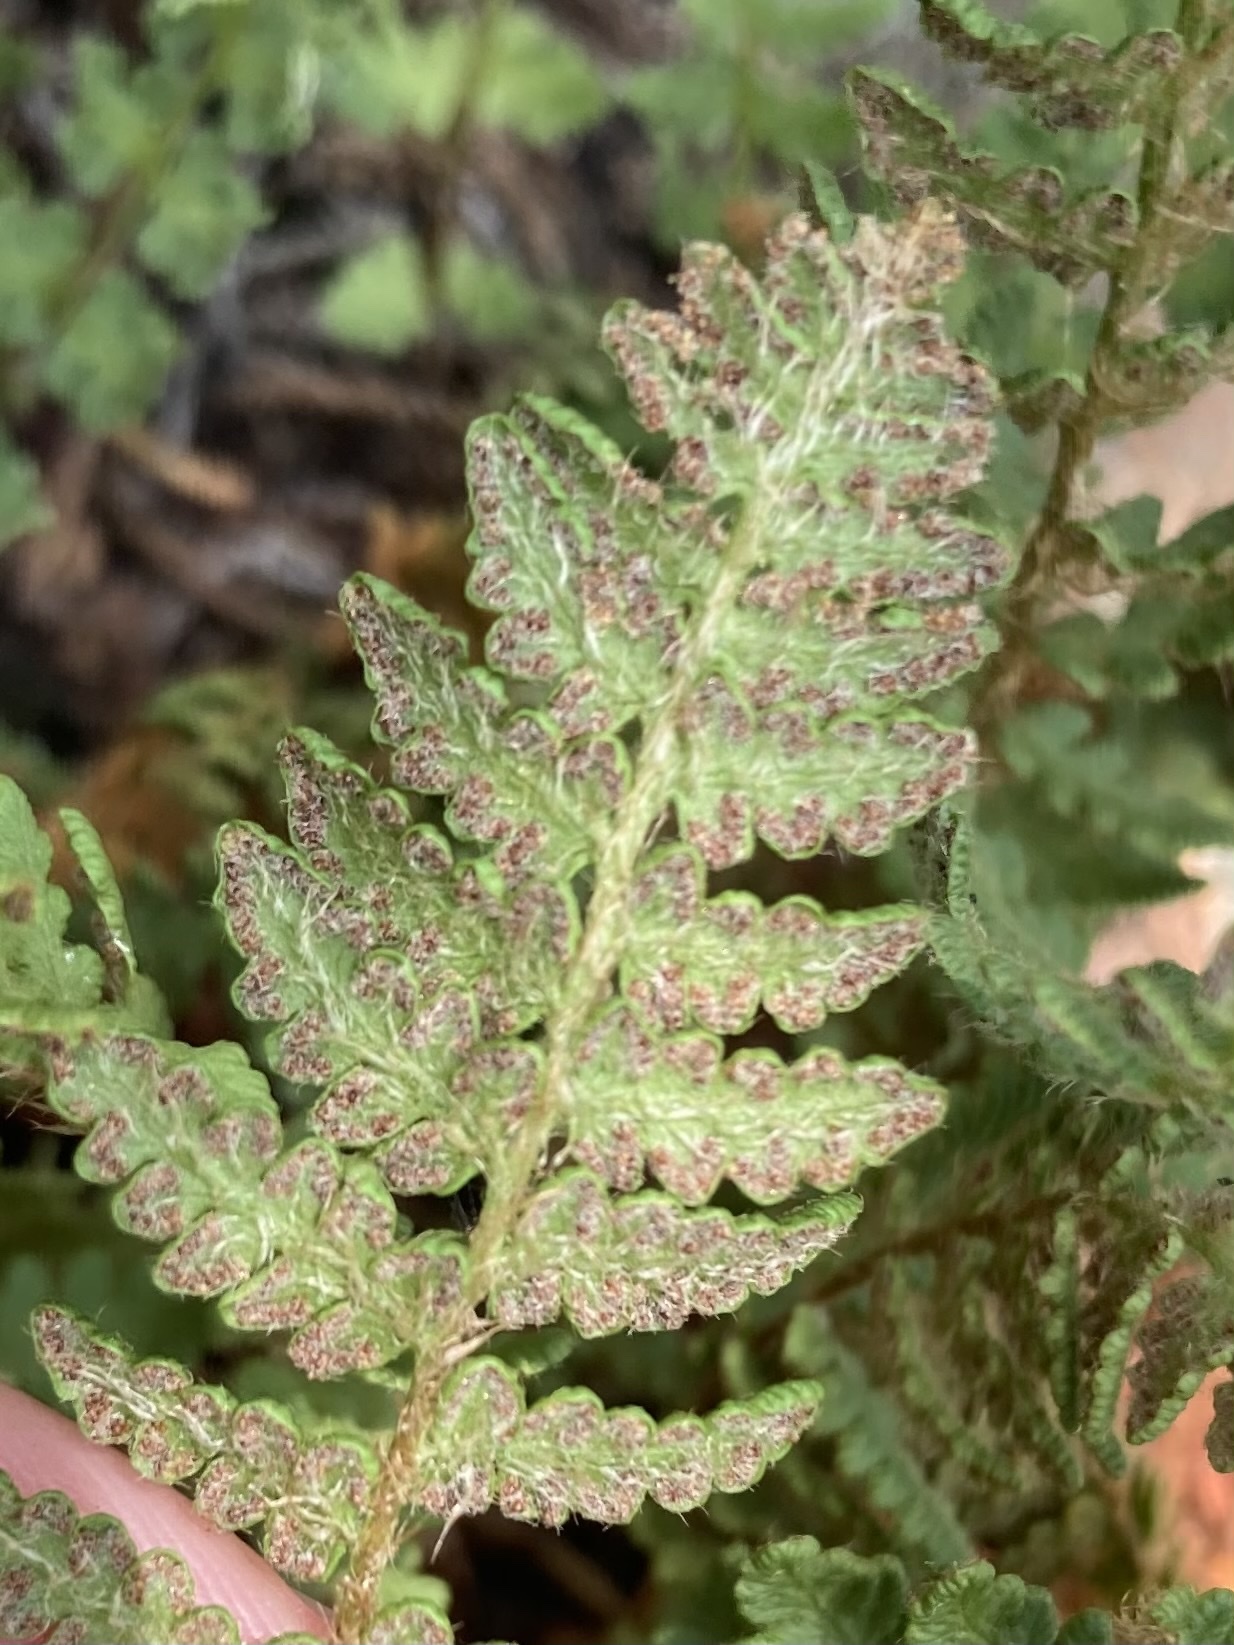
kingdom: Plantae
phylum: Tracheophyta
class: Polypodiopsida
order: Polypodiales
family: Woodsiaceae
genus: Woodsia
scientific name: Woodsia ilvensis
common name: Fragrant woodsia
